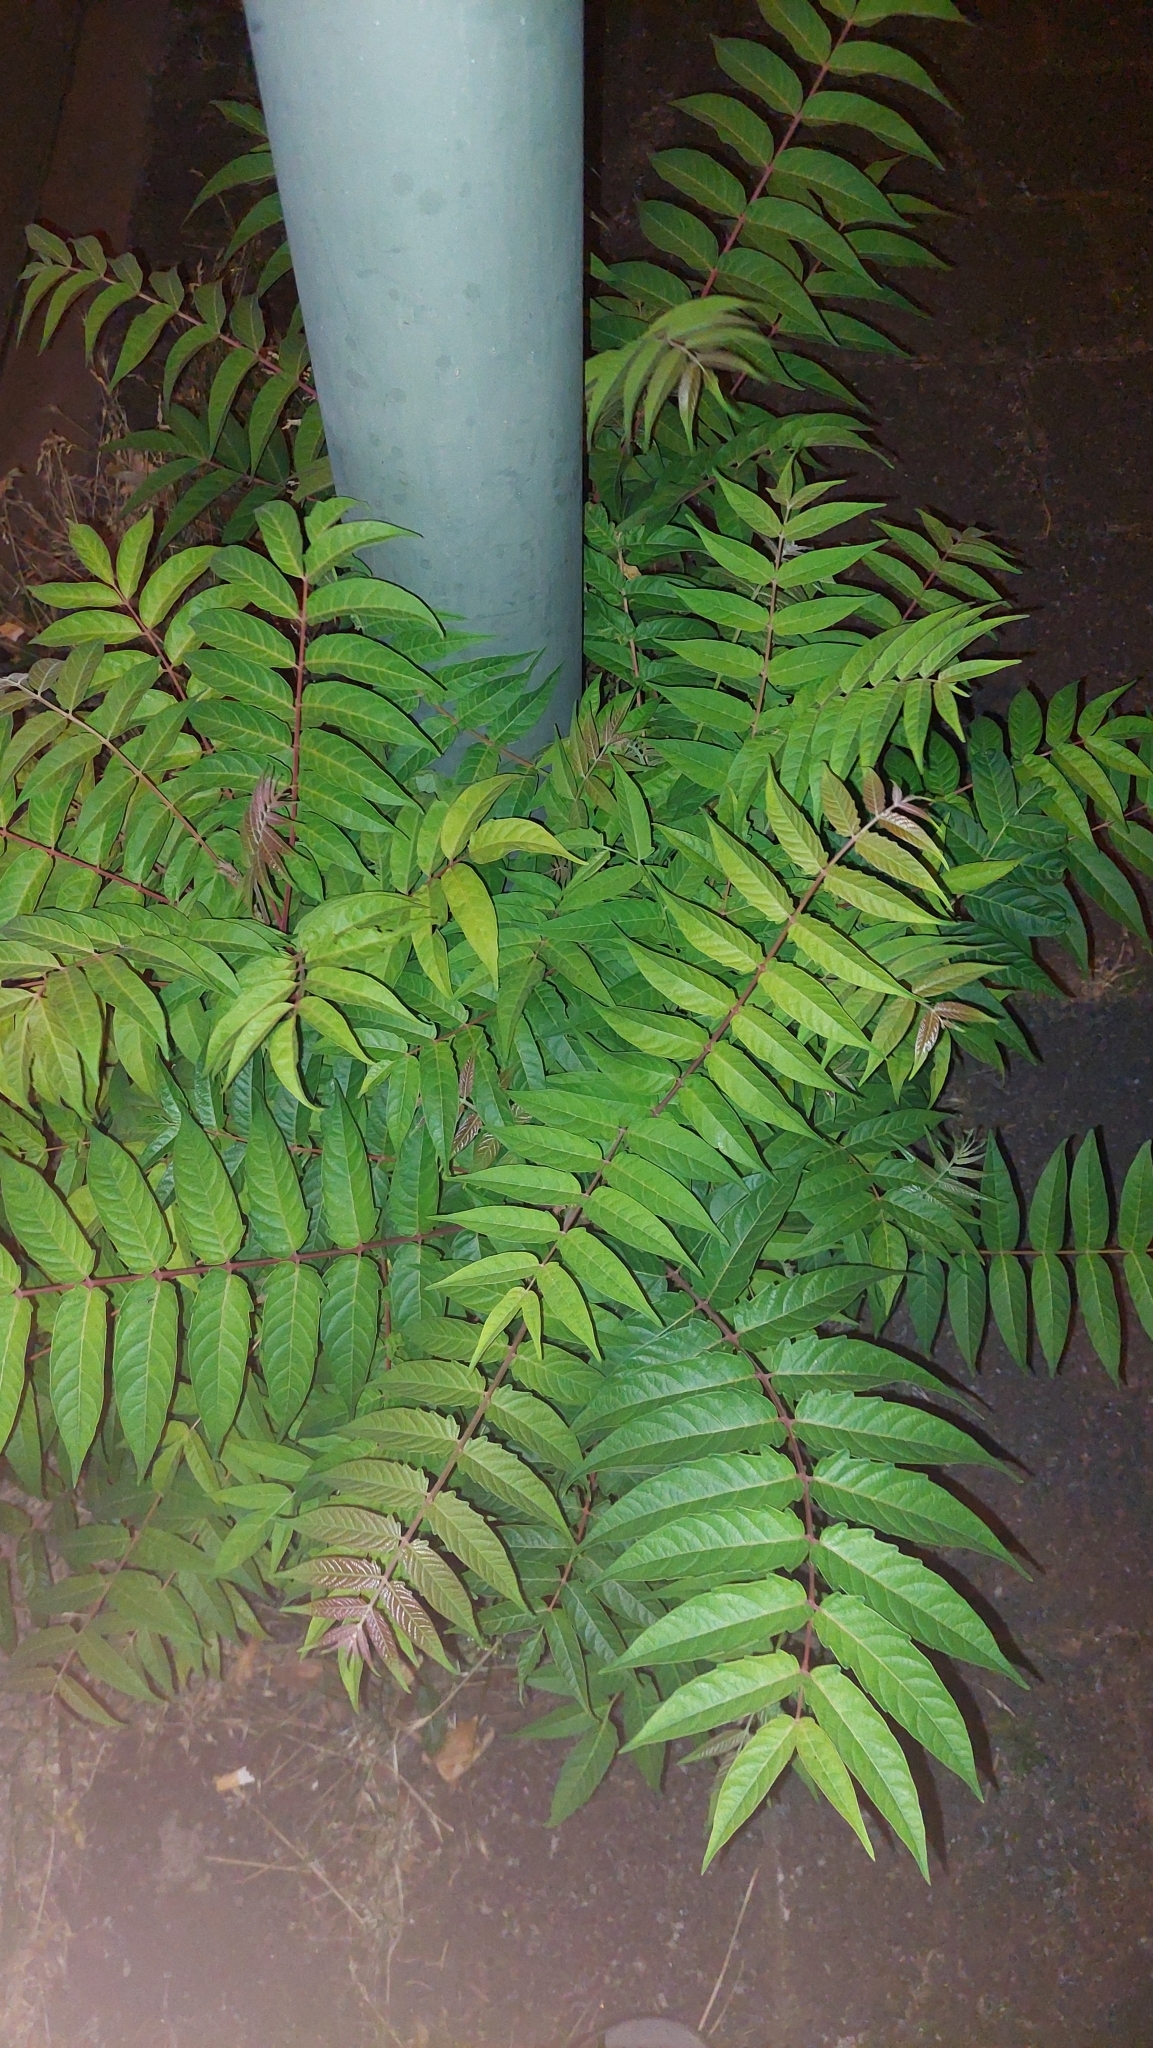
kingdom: Plantae
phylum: Tracheophyta
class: Magnoliopsida
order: Sapindales
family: Simaroubaceae
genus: Ailanthus
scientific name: Ailanthus altissima
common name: Tree-of-heaven
